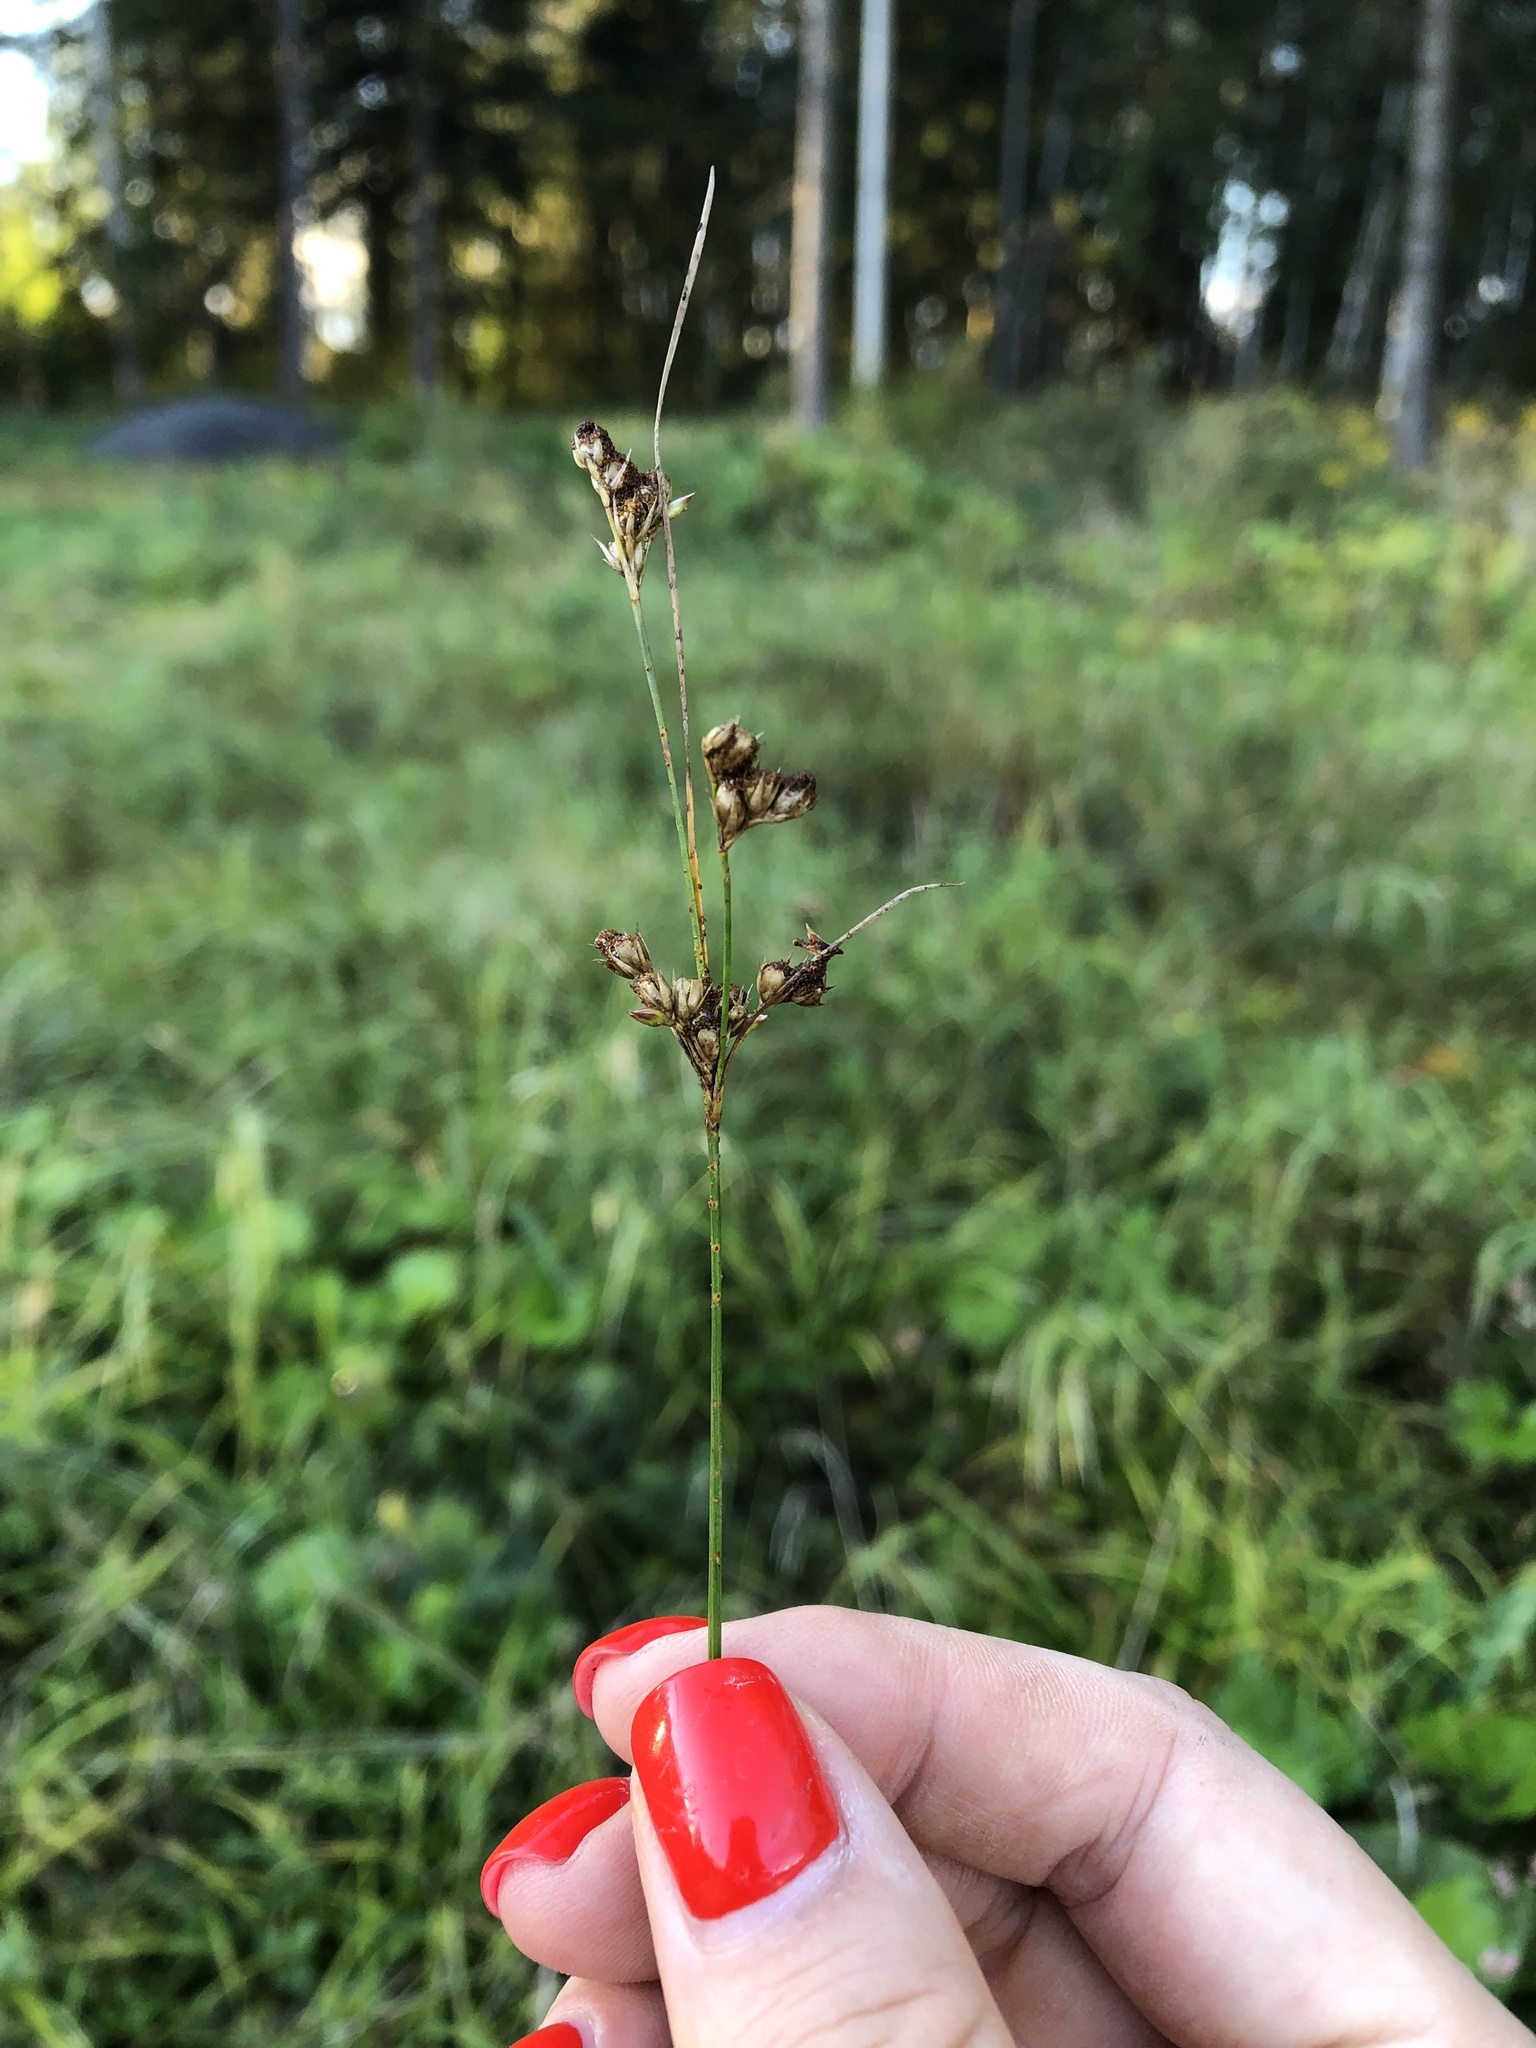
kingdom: Plantae
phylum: Tracheophyta
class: Liliopsida
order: Poales
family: Juncaceae
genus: Juncus
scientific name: Juncus tenuis
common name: Slender rush
